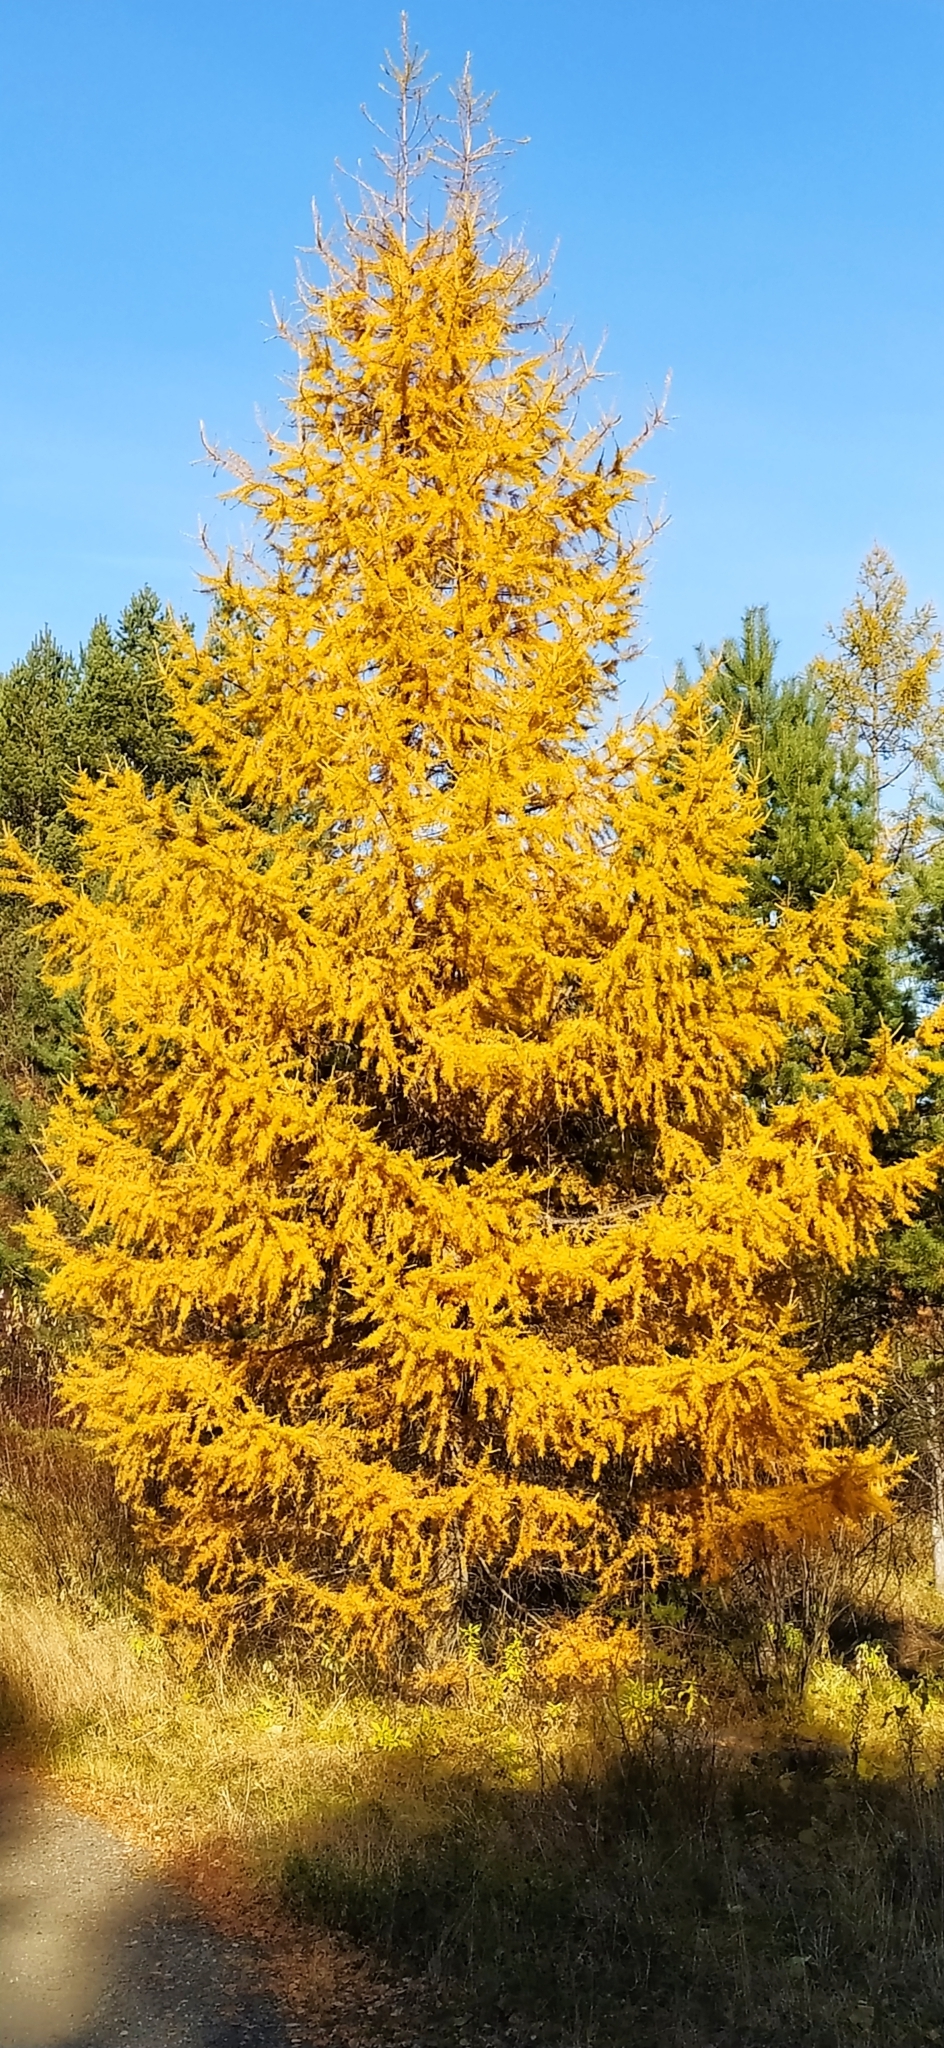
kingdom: Plantae
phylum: Tracheophyta
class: Pinopsida
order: Pinales
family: Pinaceae
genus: Larix
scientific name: Larix sibirica
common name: Siberian larch
